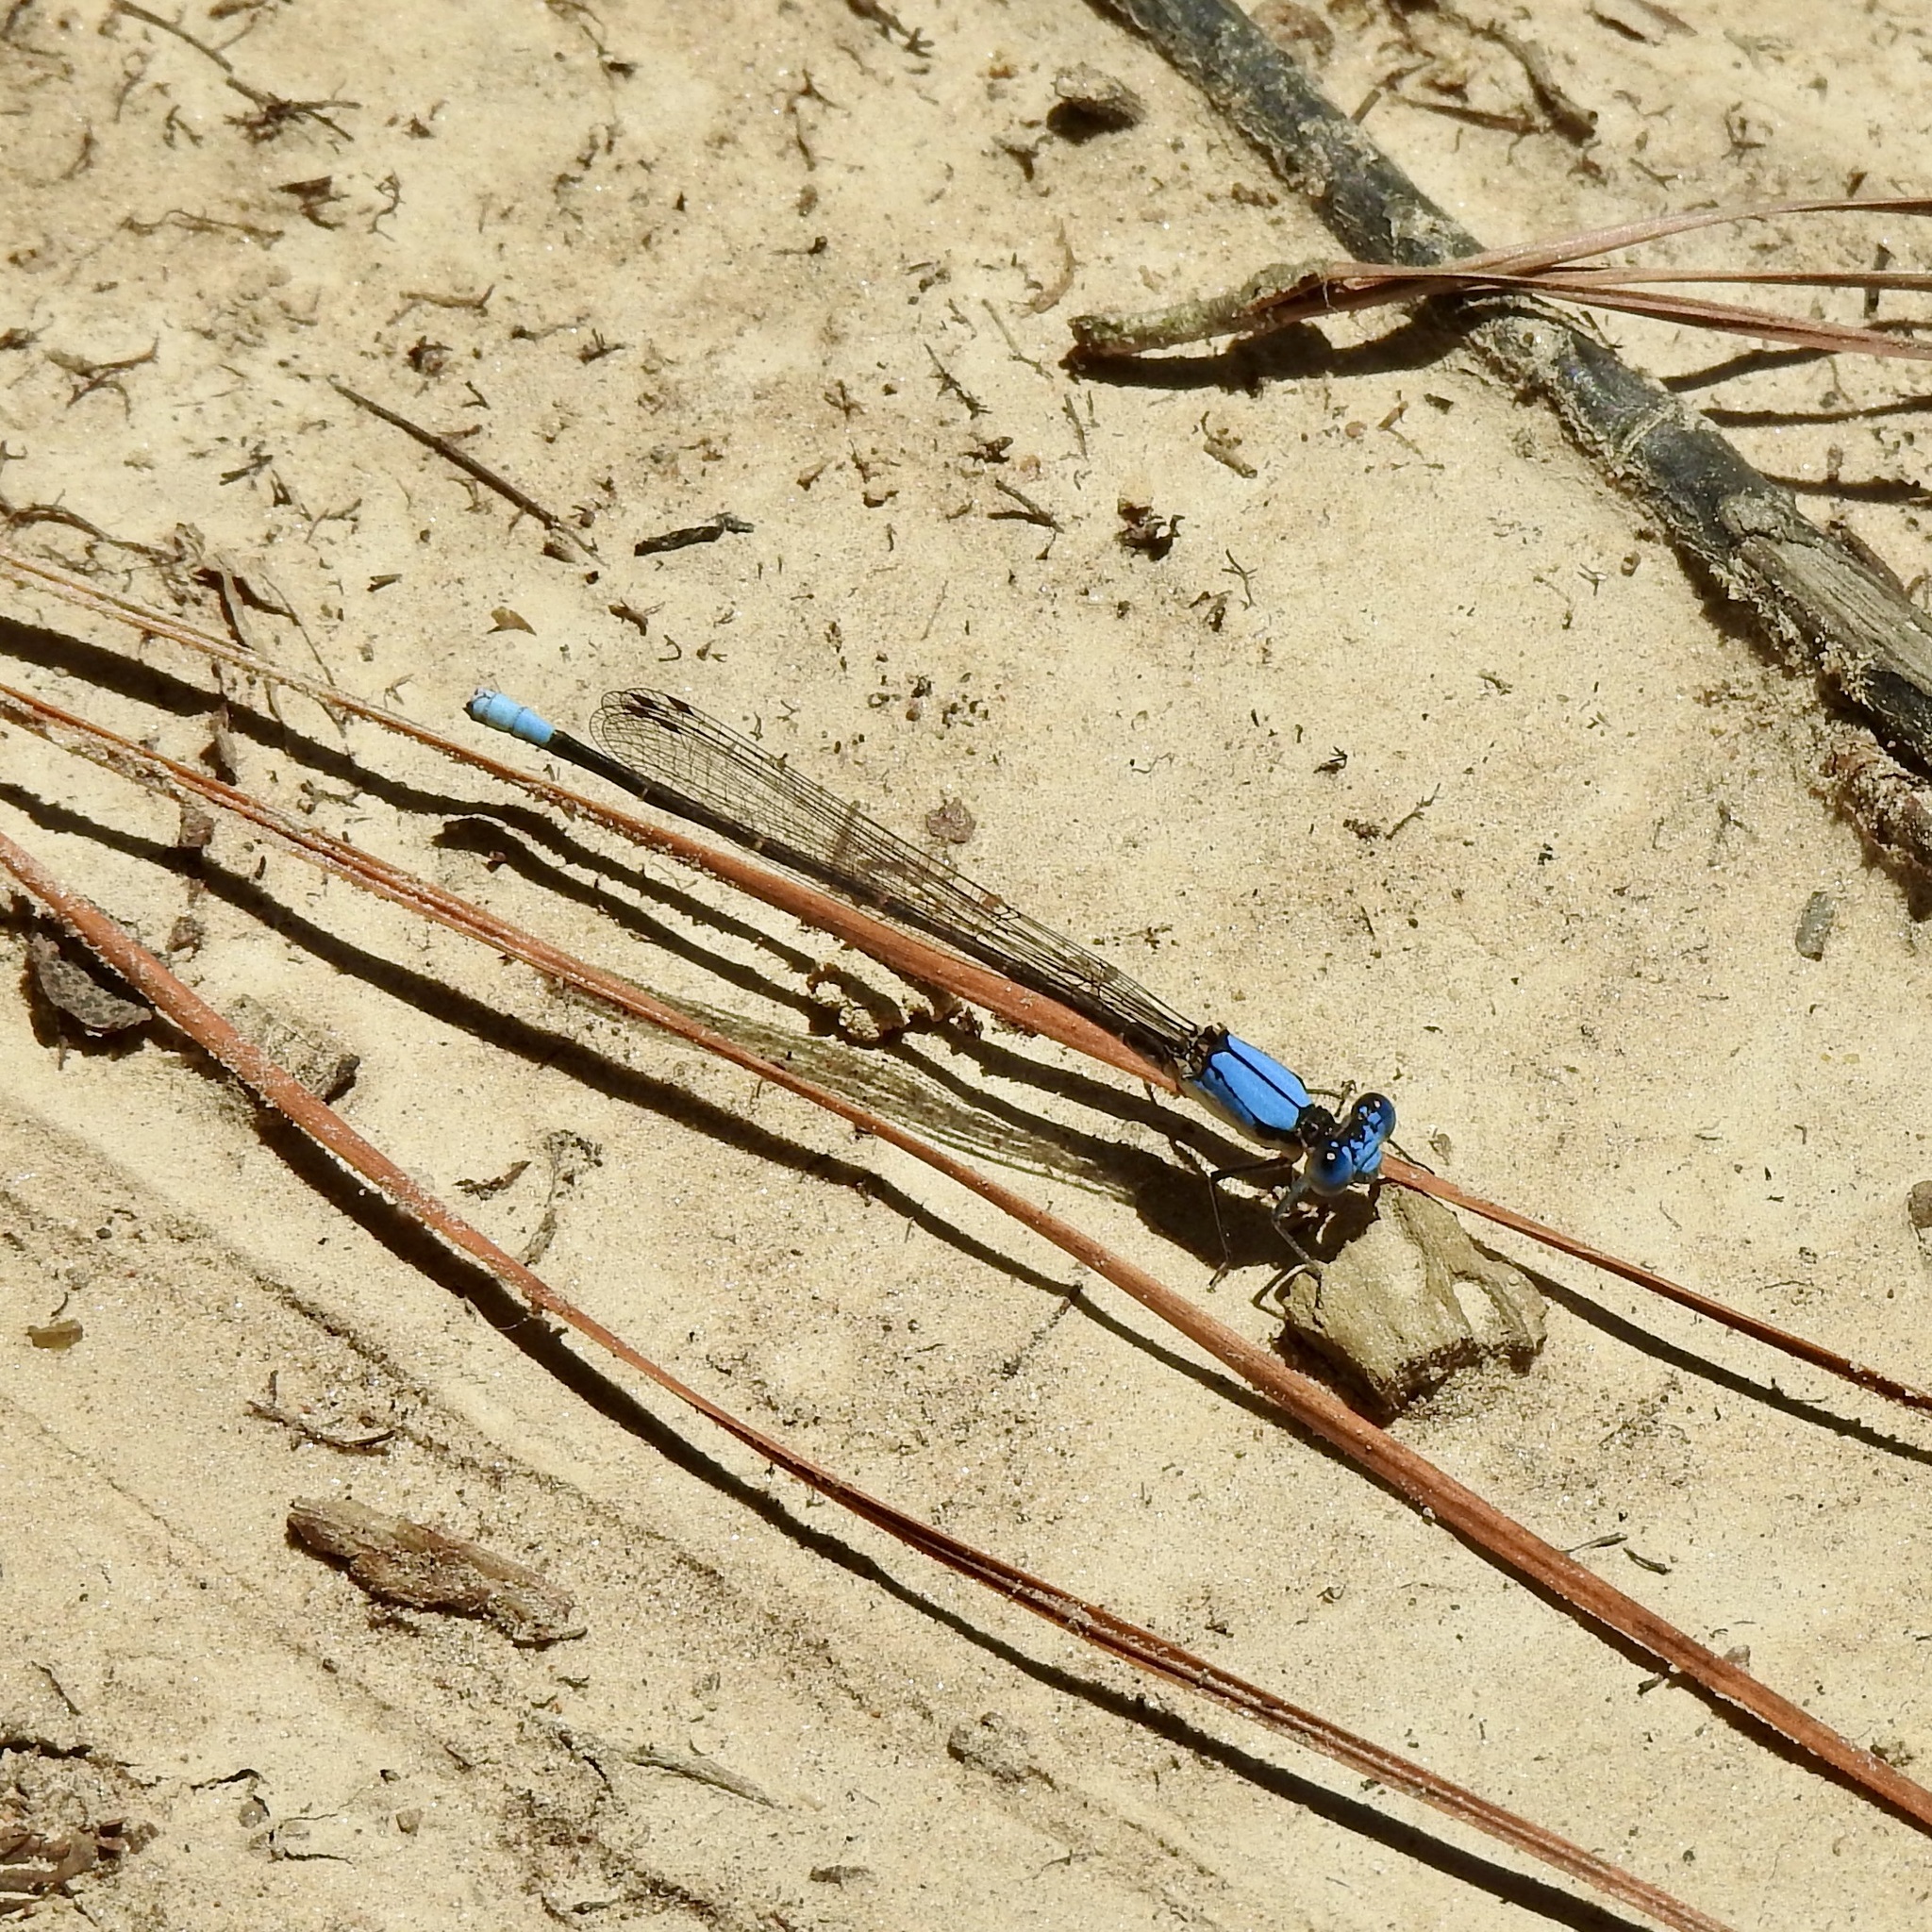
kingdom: Animalia
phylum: Arthropoda
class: Insecta
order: Odonata
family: Coenagrionidae
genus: Argia
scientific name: Argia apicalis
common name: Blue-fronted dancer
